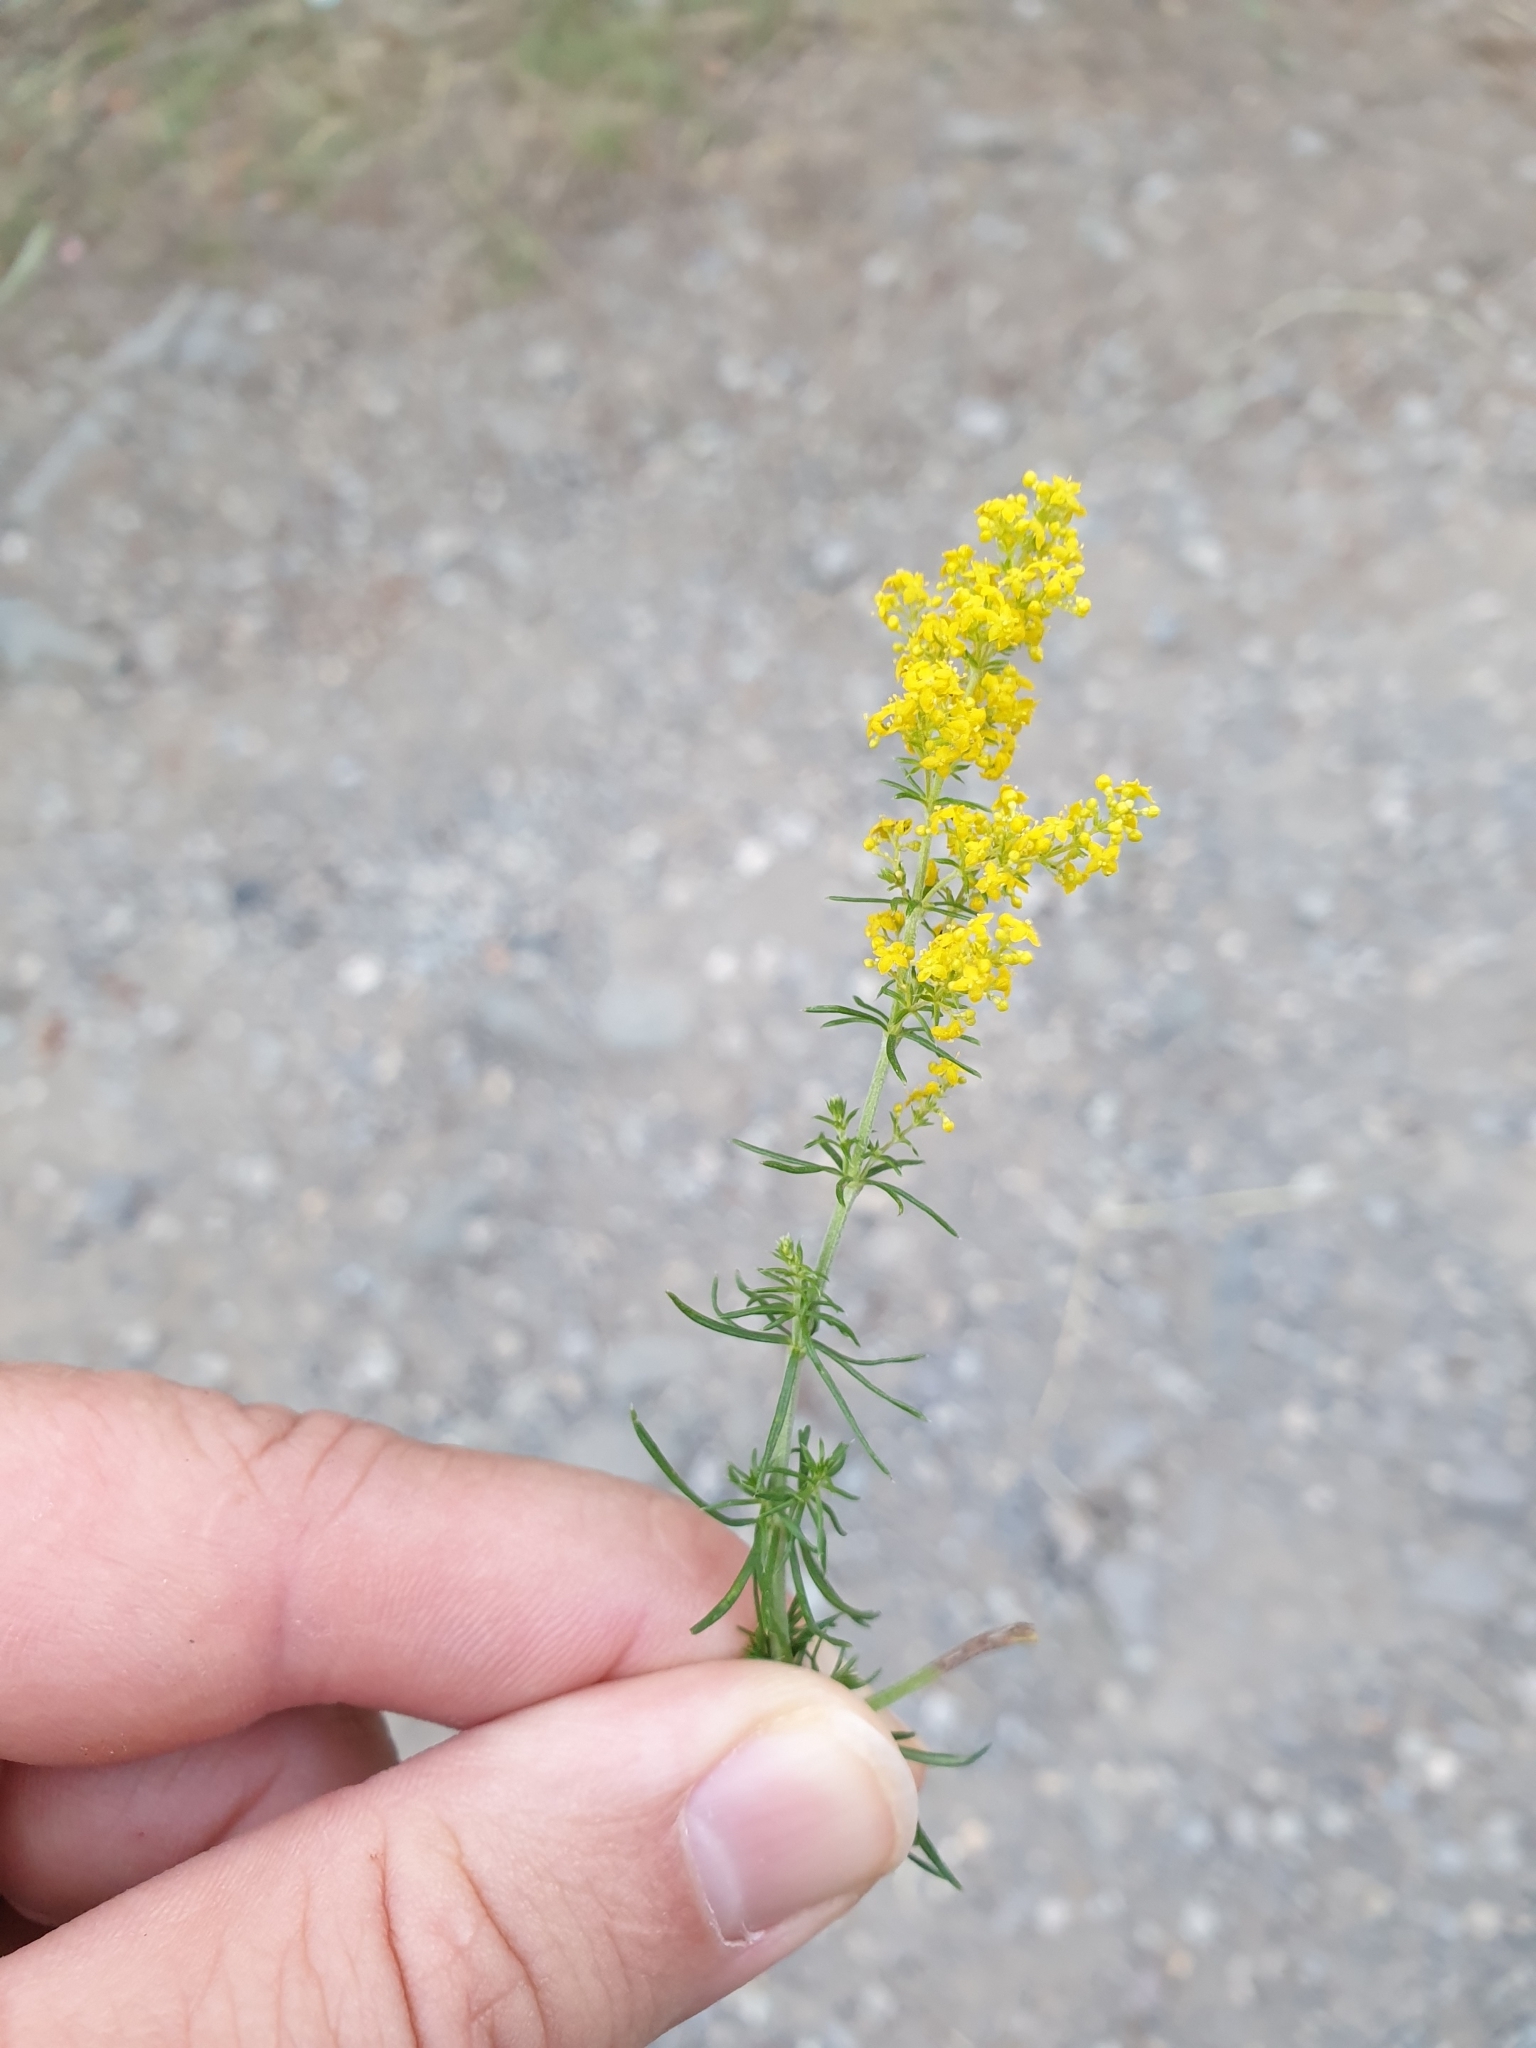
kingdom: Plantae
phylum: Tracheophyta
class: Magnoliopsida
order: Gentianales
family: Rubiaceae
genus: Galium
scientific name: Galium verum
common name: Lady's bedstraw
